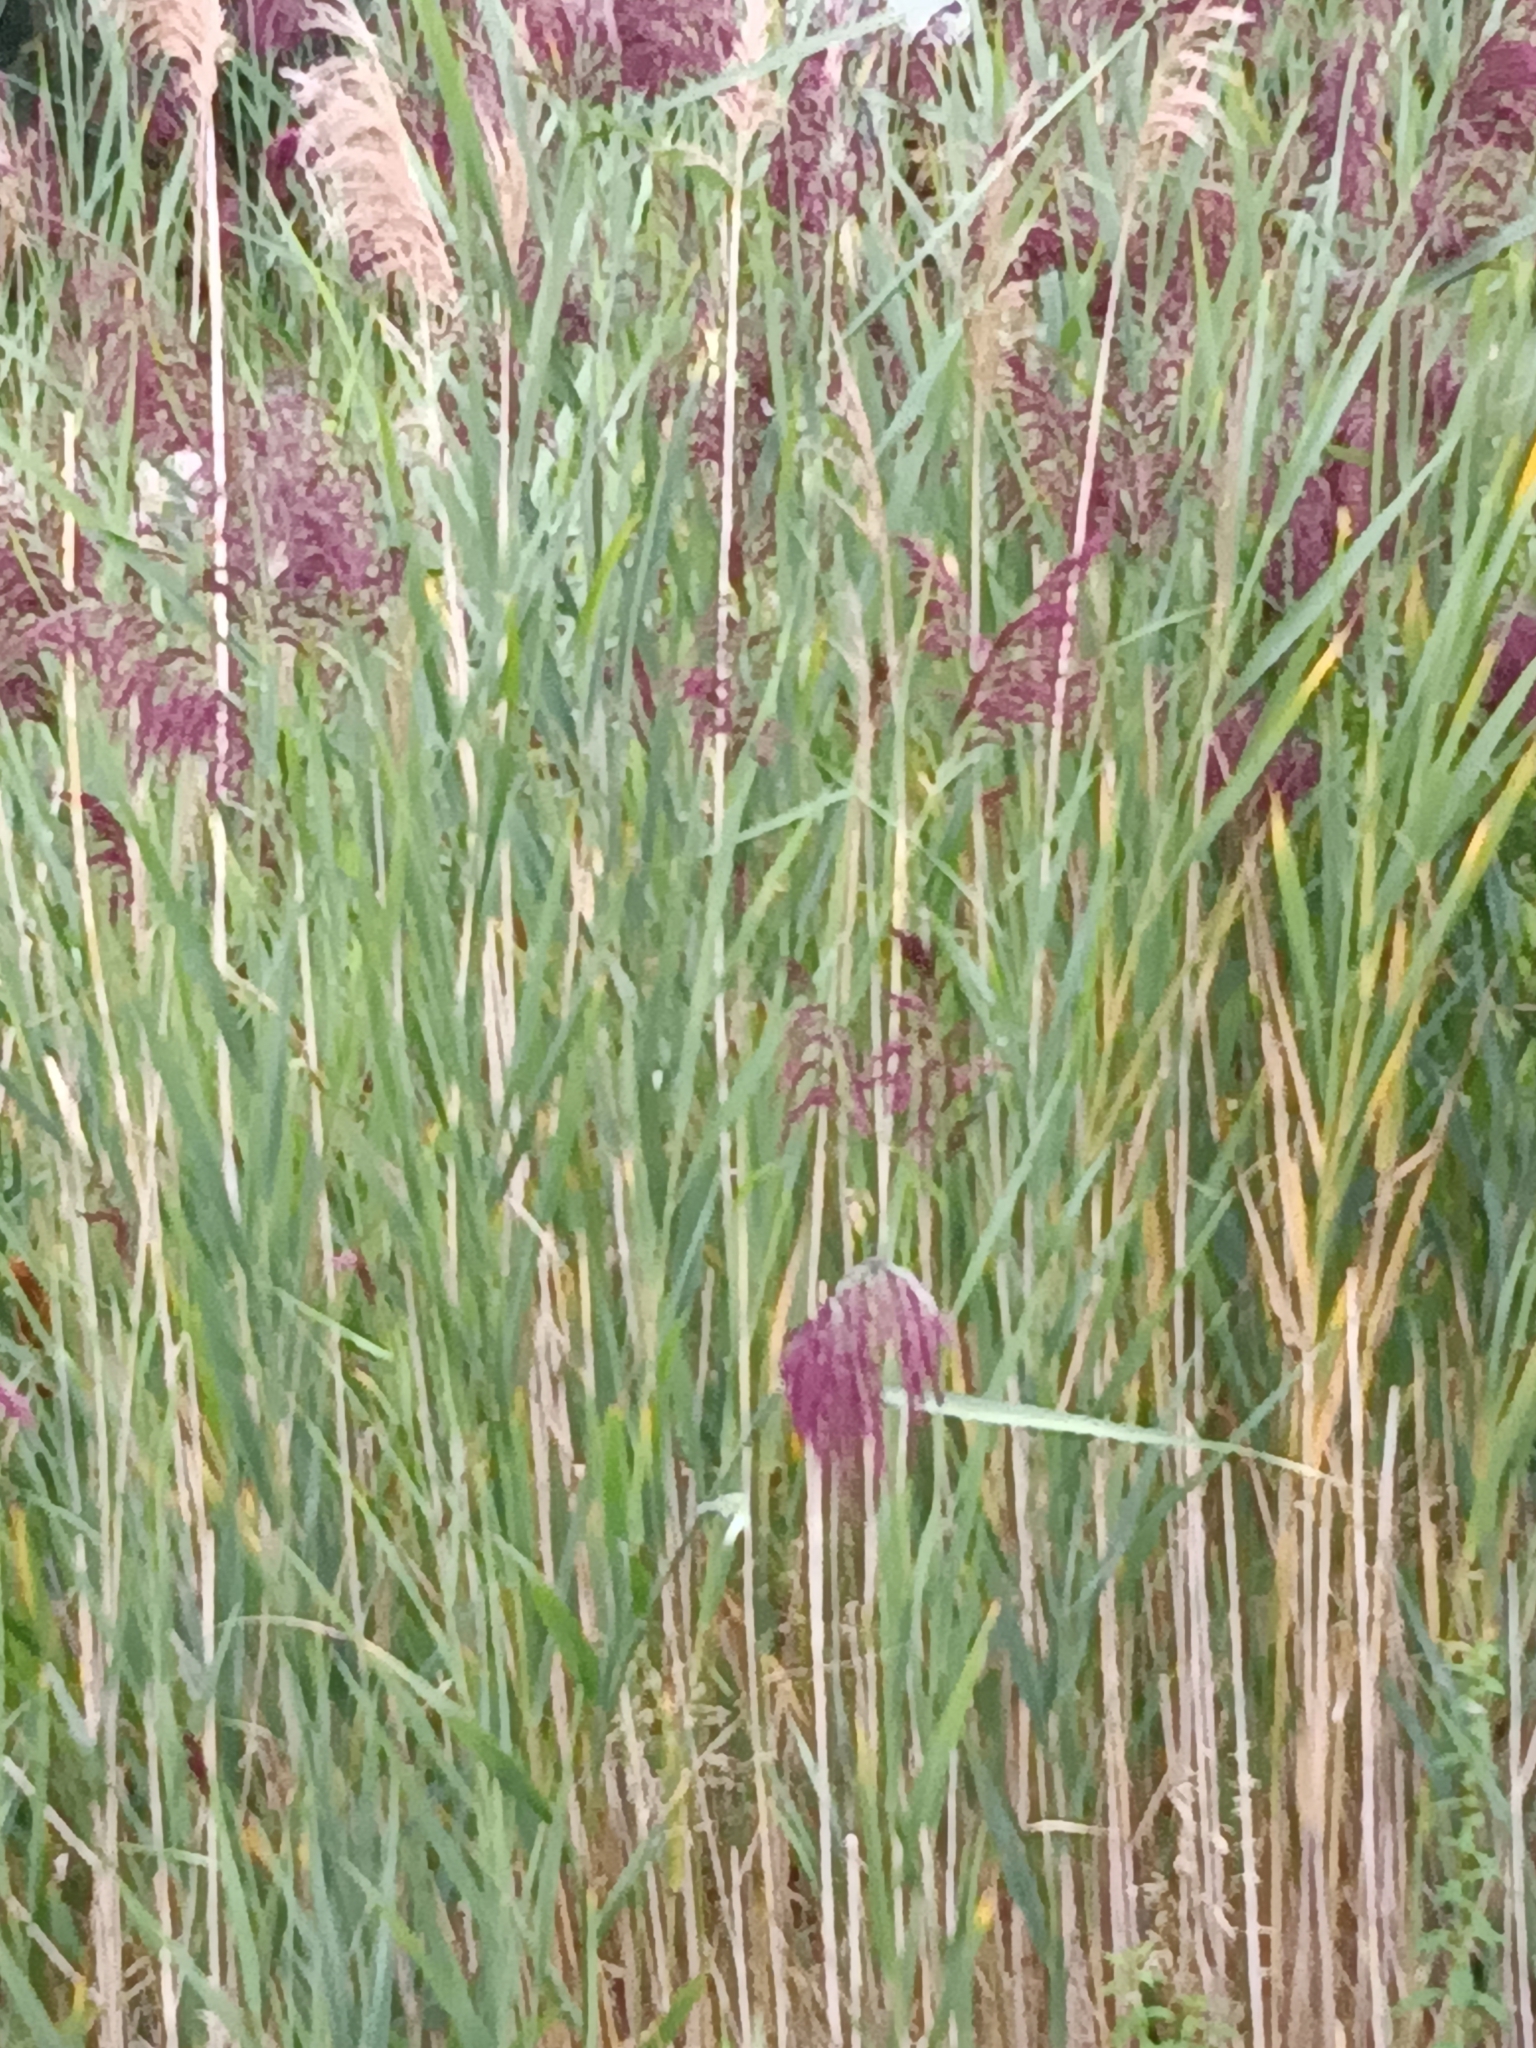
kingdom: Plantae
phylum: Tracheophyta
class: Liliopsida
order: Poales
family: Poaceae
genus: Phragmites
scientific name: Phragmites australis
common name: Common reed
